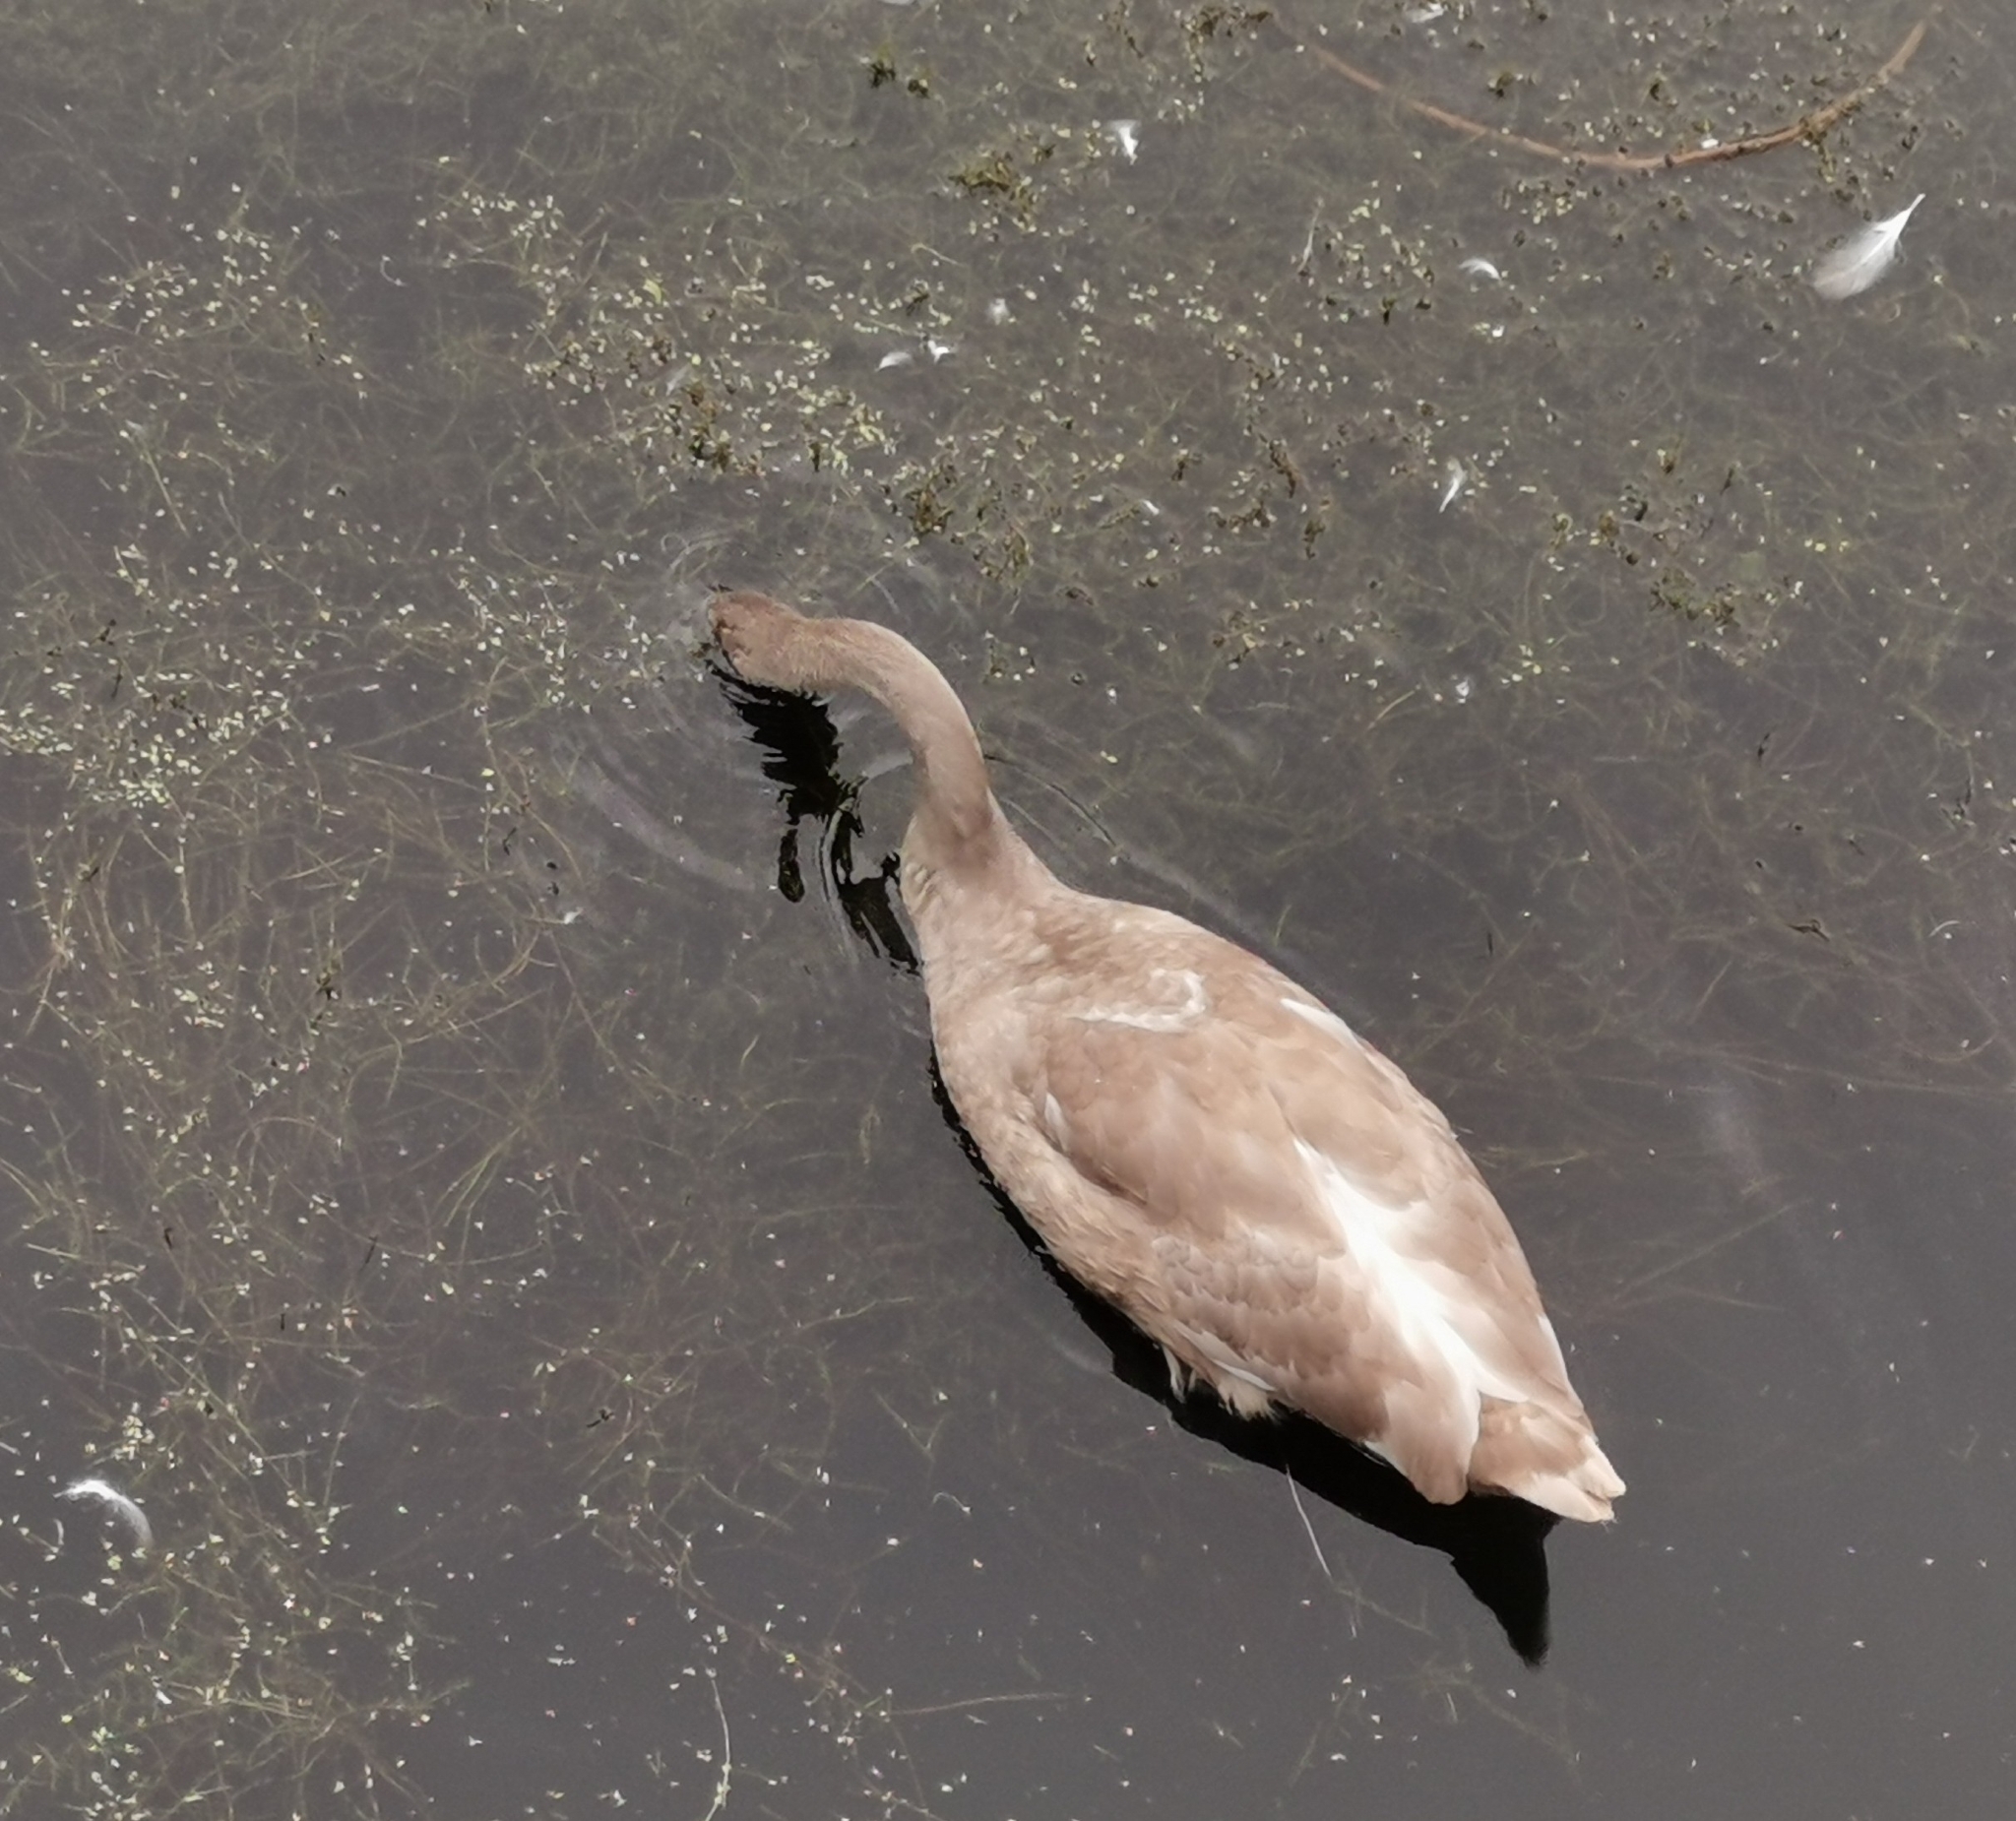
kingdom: Animalia
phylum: Chordata
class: Aves
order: Anseriformes
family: Anatidae
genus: Cygnus
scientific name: Cygnus olor
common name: Mute swan
